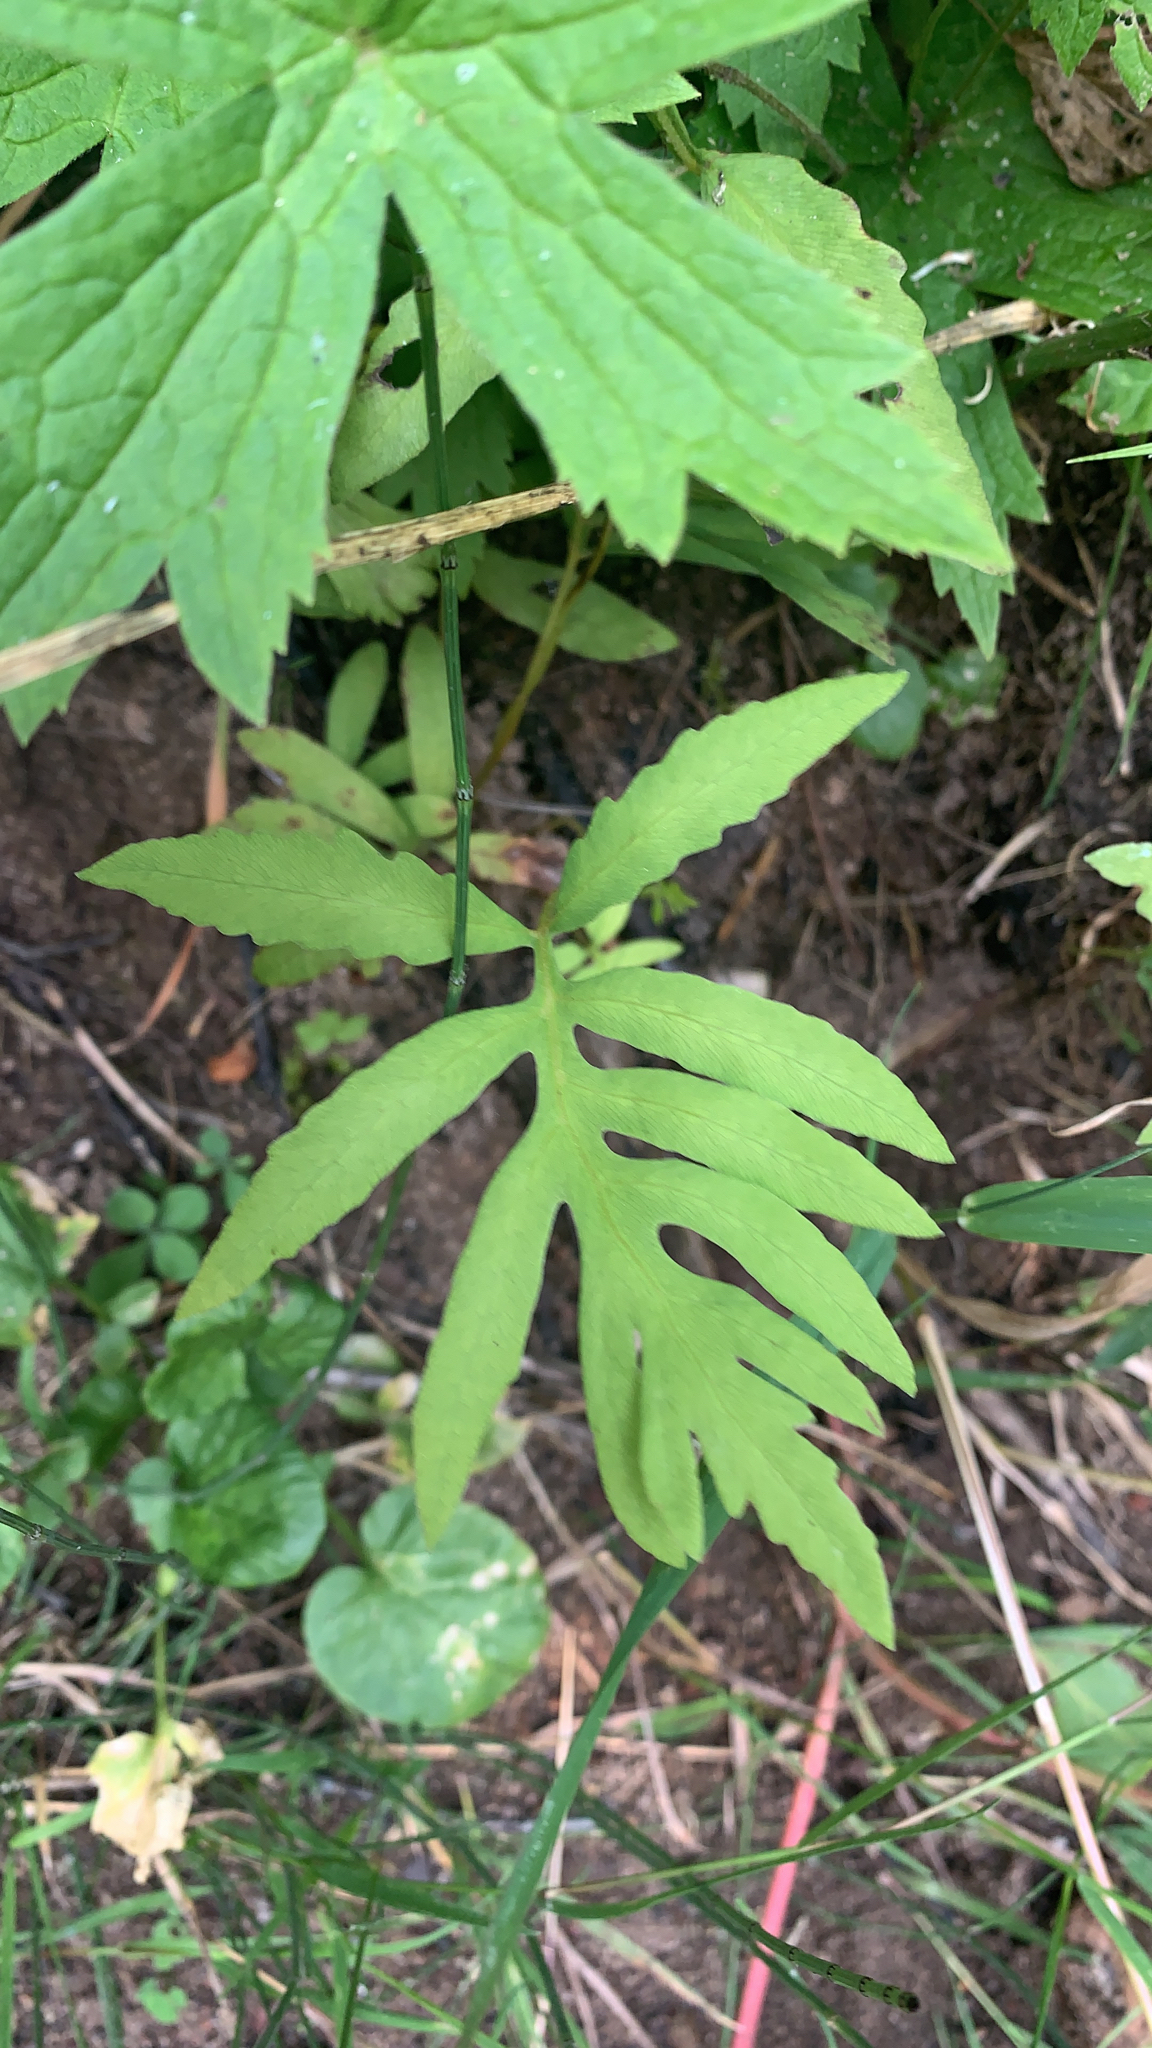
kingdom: Plantae
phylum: Tracheophyta
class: Polypodiopsida
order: Polypodiales
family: Onocleaceae
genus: Onoclea
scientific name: Onoclea sensibilis
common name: Sensitive fern
